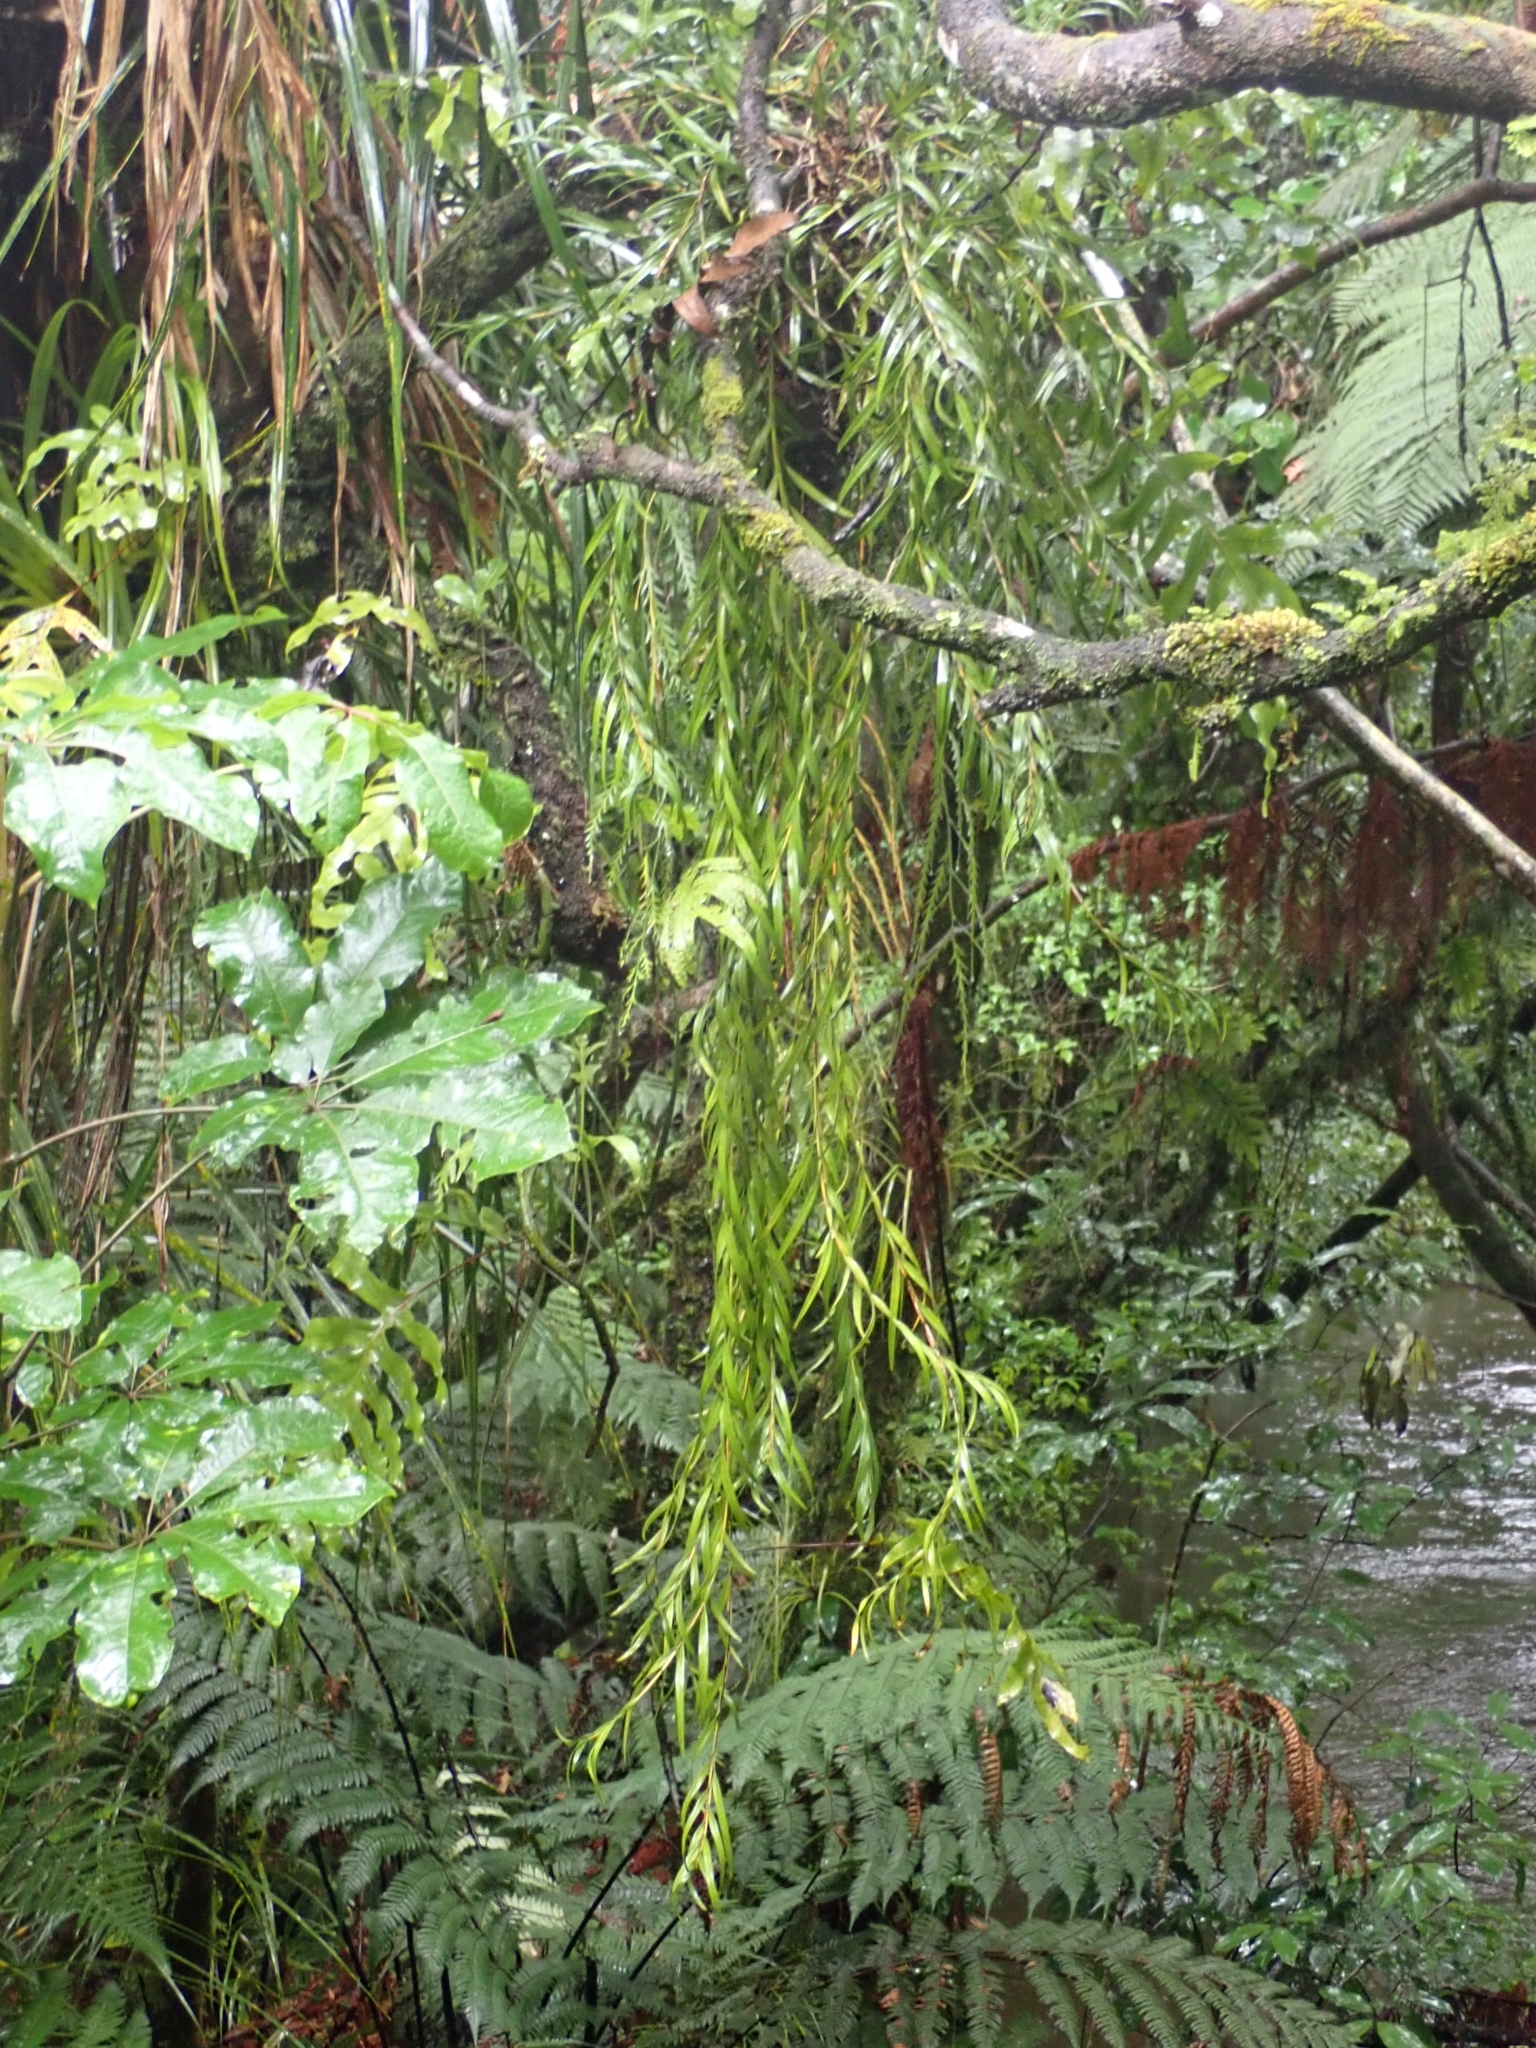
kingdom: Plantae
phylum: Tracheophyta
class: Liliopsida
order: Asparagales
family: Orchidaceae
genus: Earina
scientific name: Earina autumnalis
